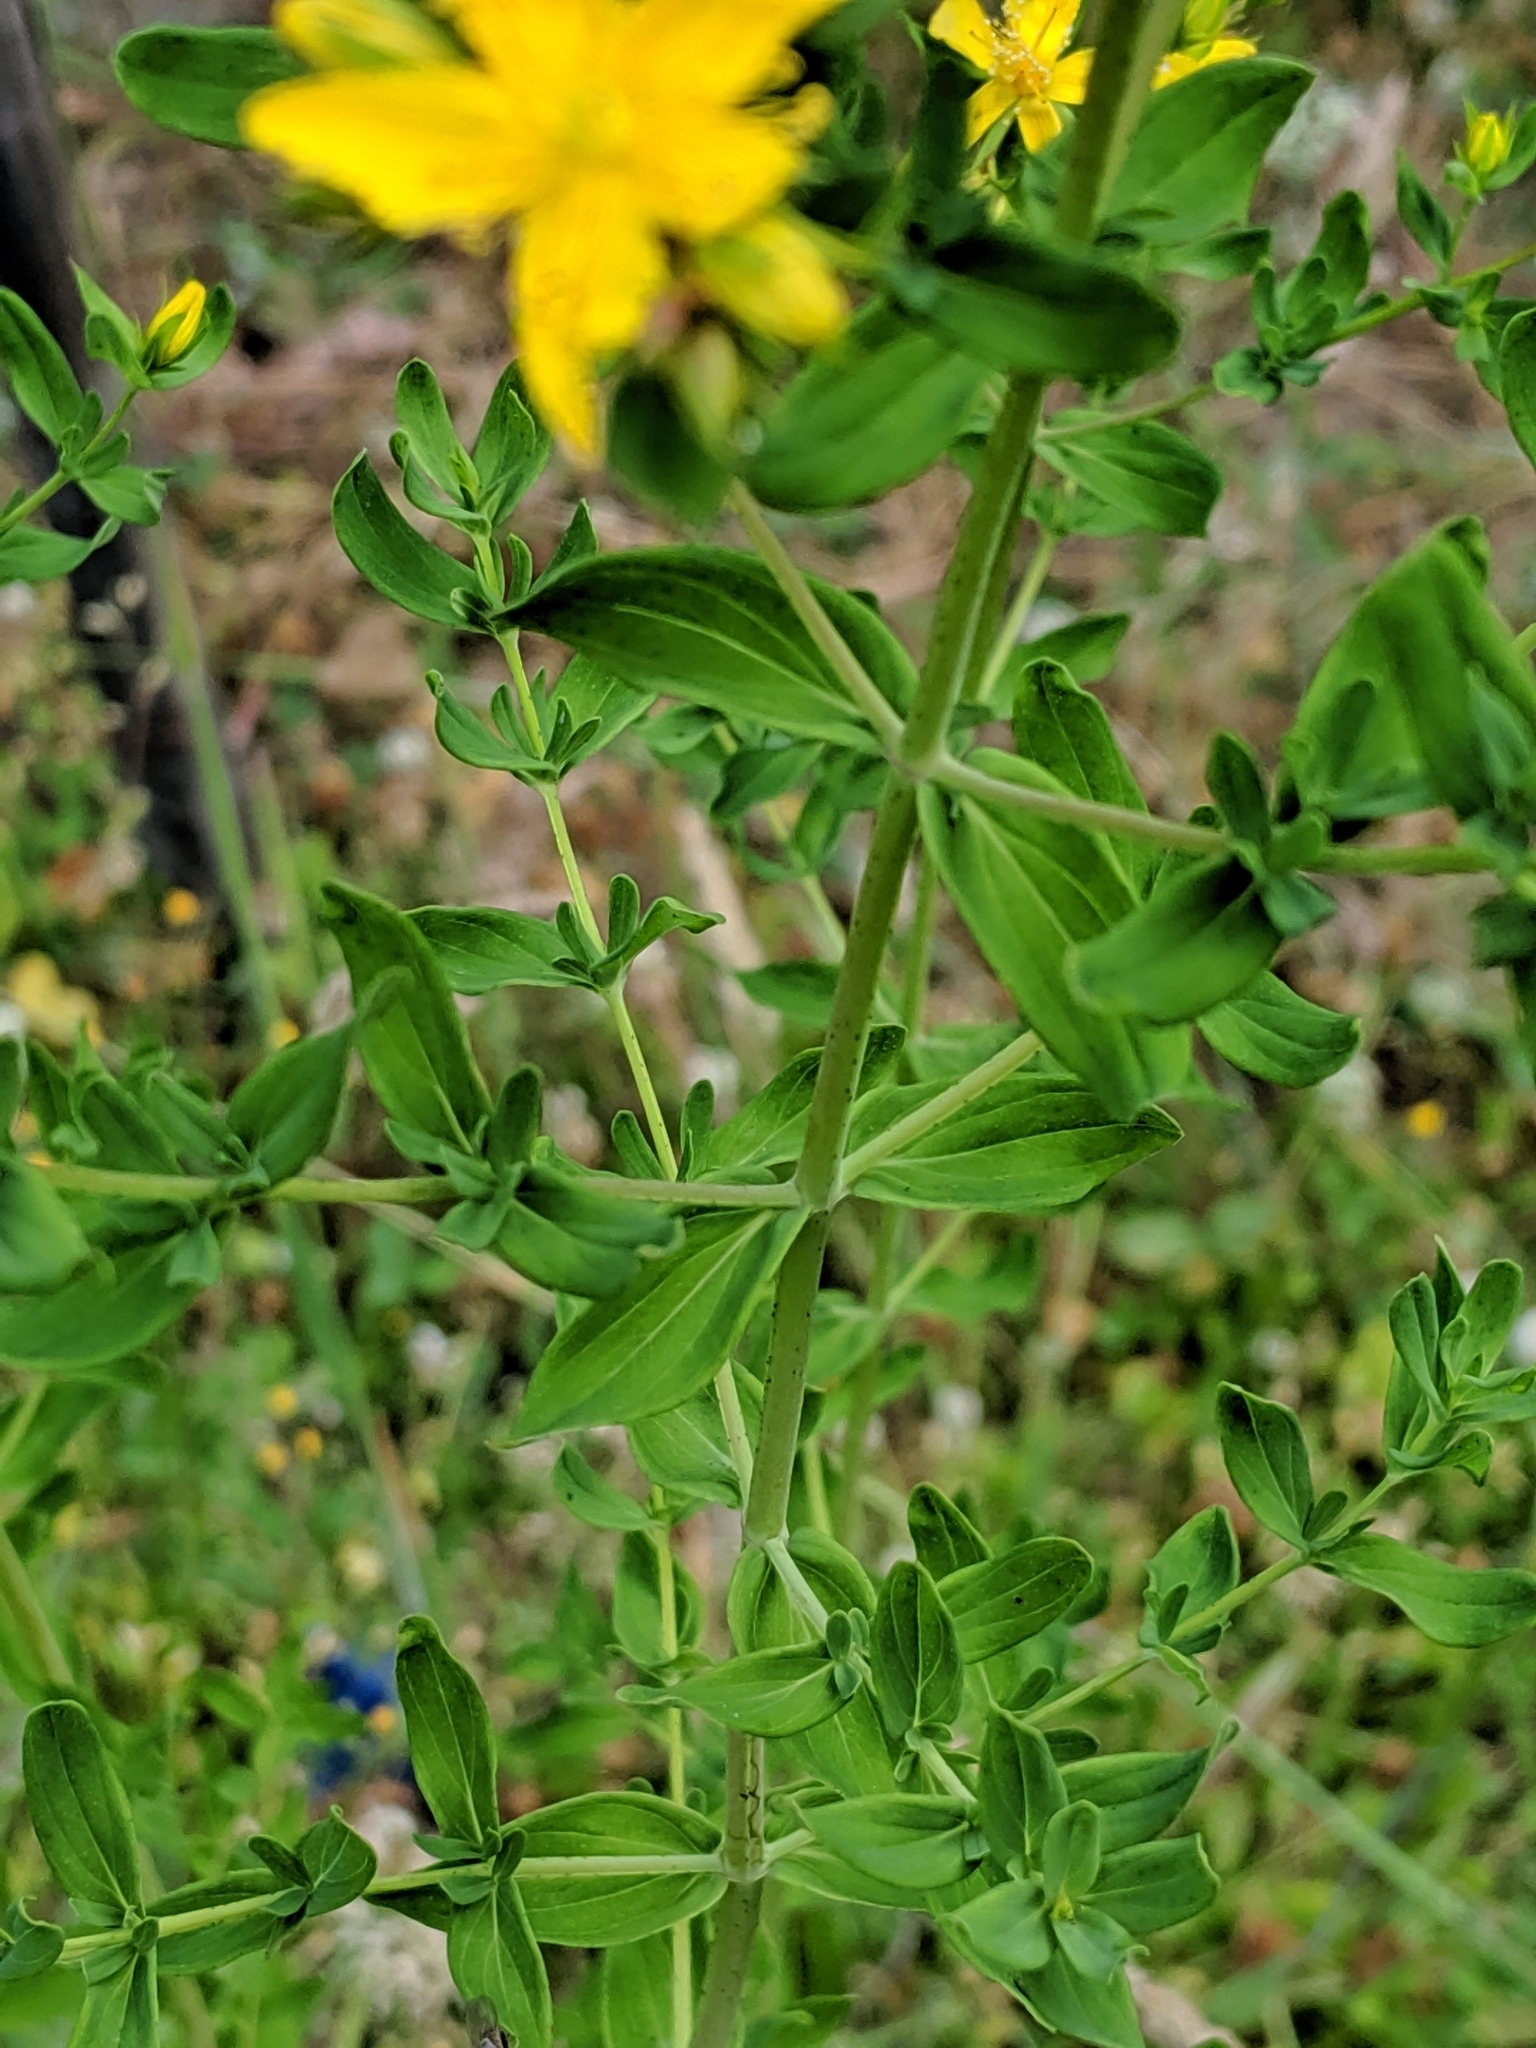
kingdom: Plantae
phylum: Tracheophyta
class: Magnoliopsida
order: Malpighiales
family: Hypericaceae
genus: Hypericum
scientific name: Hypericum perforatum
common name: Common st. johnswort
